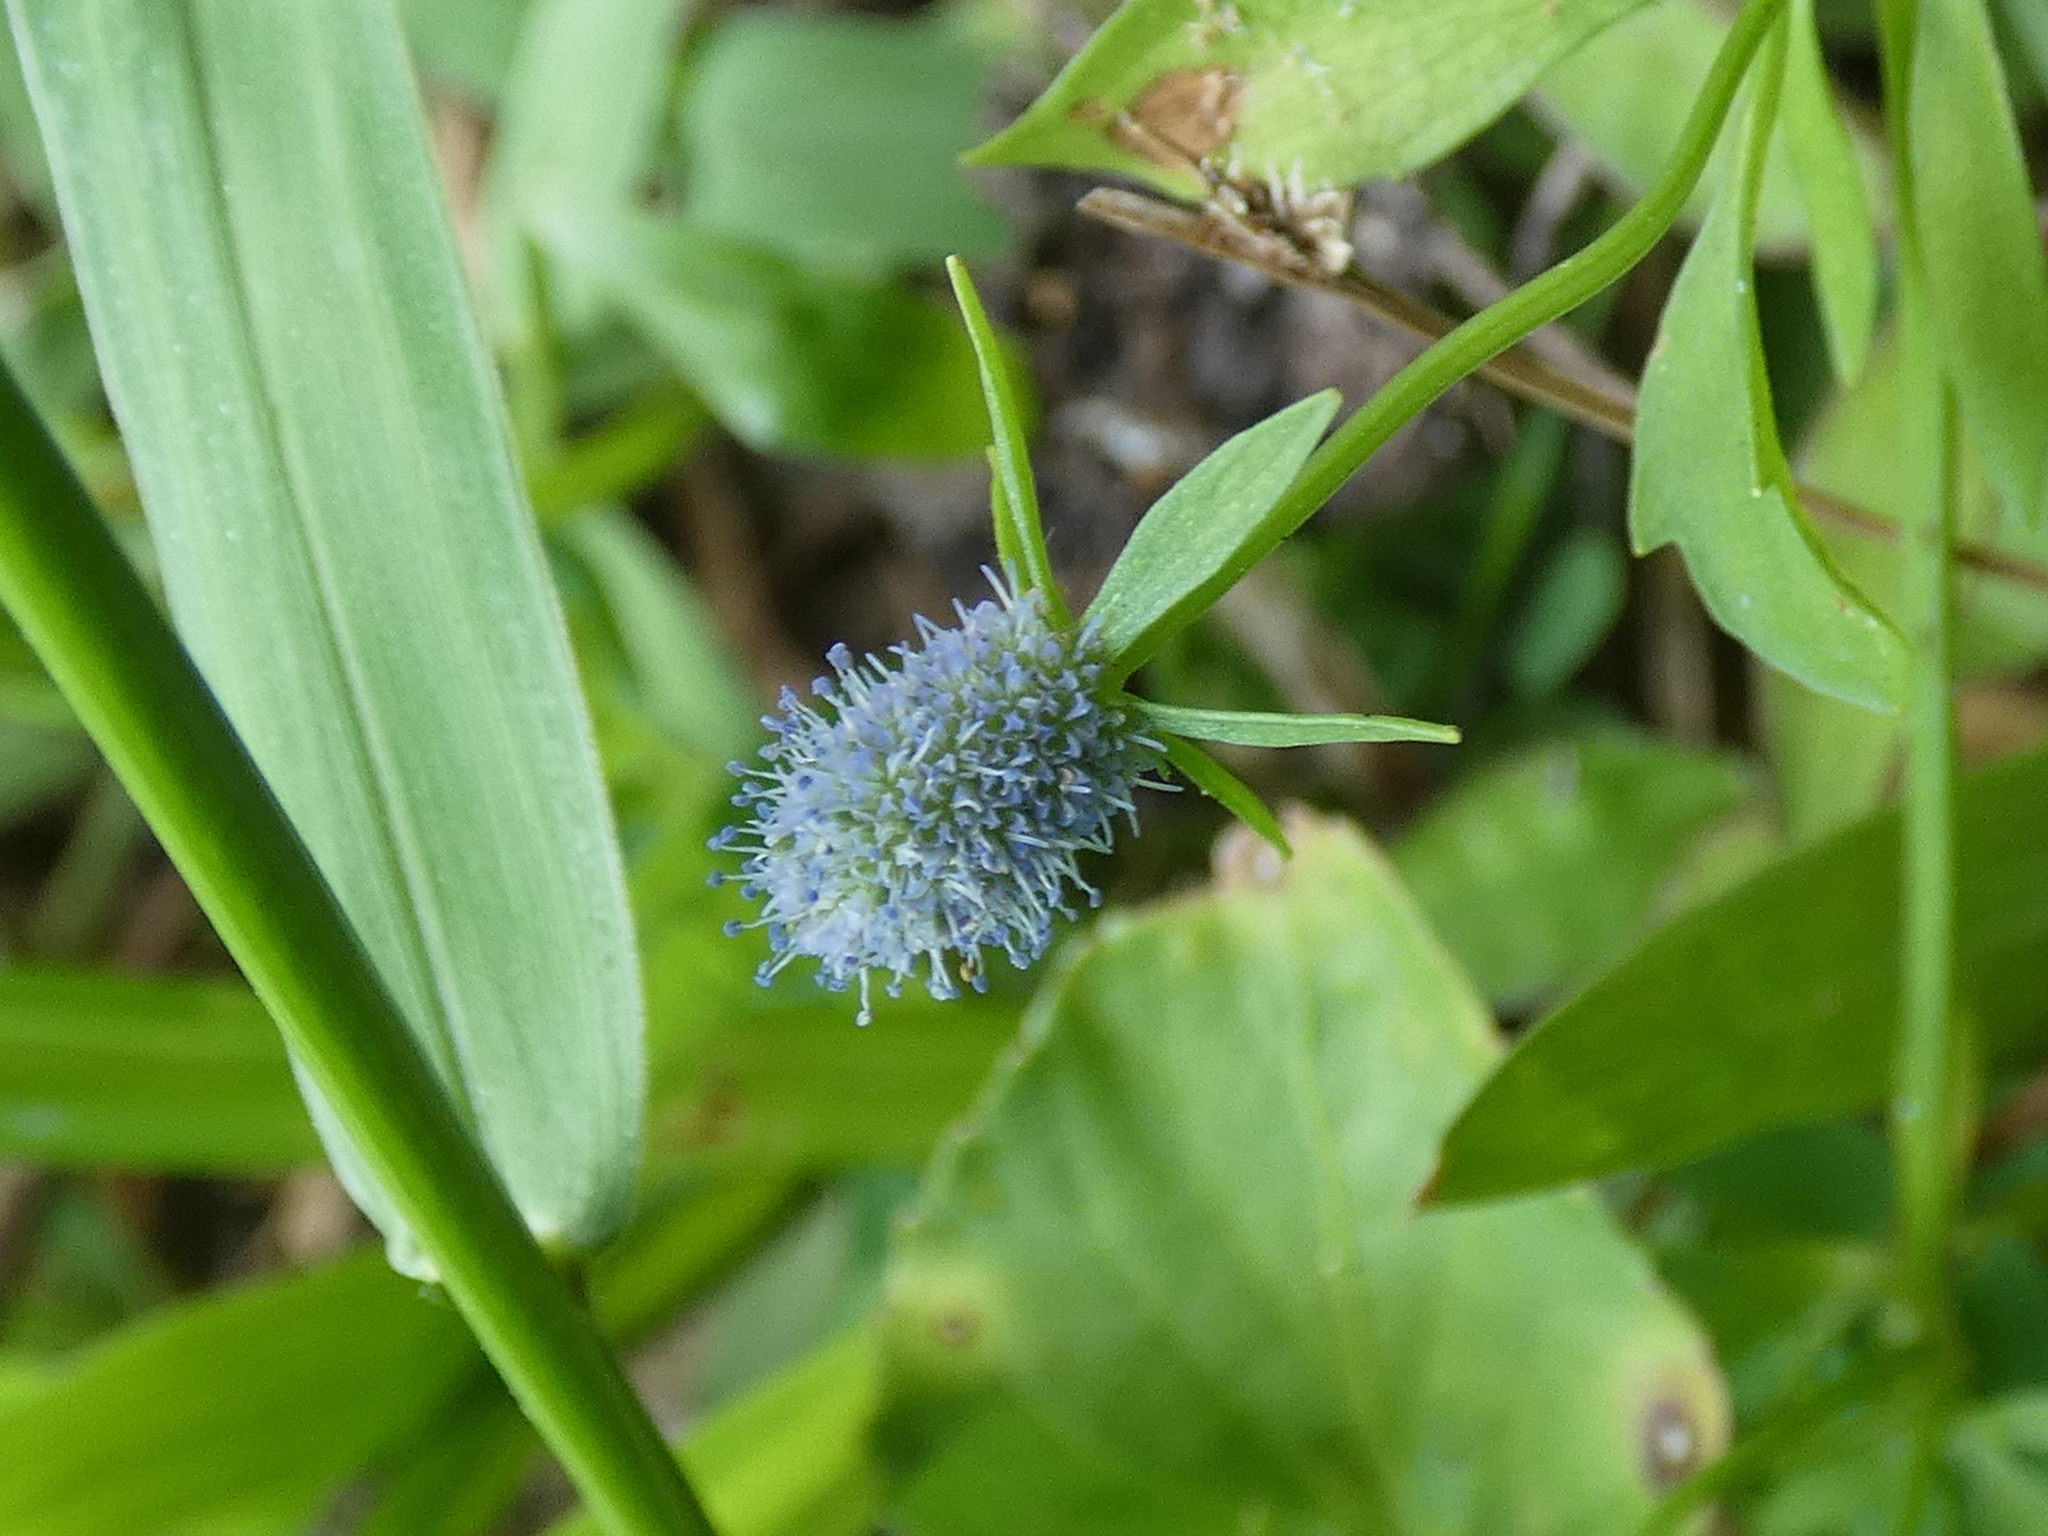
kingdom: Plantae
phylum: Tracheophyta
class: Magnoliopsida
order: Apiales
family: Apiaceae
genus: Eryngium
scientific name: Eryngium prostratum
